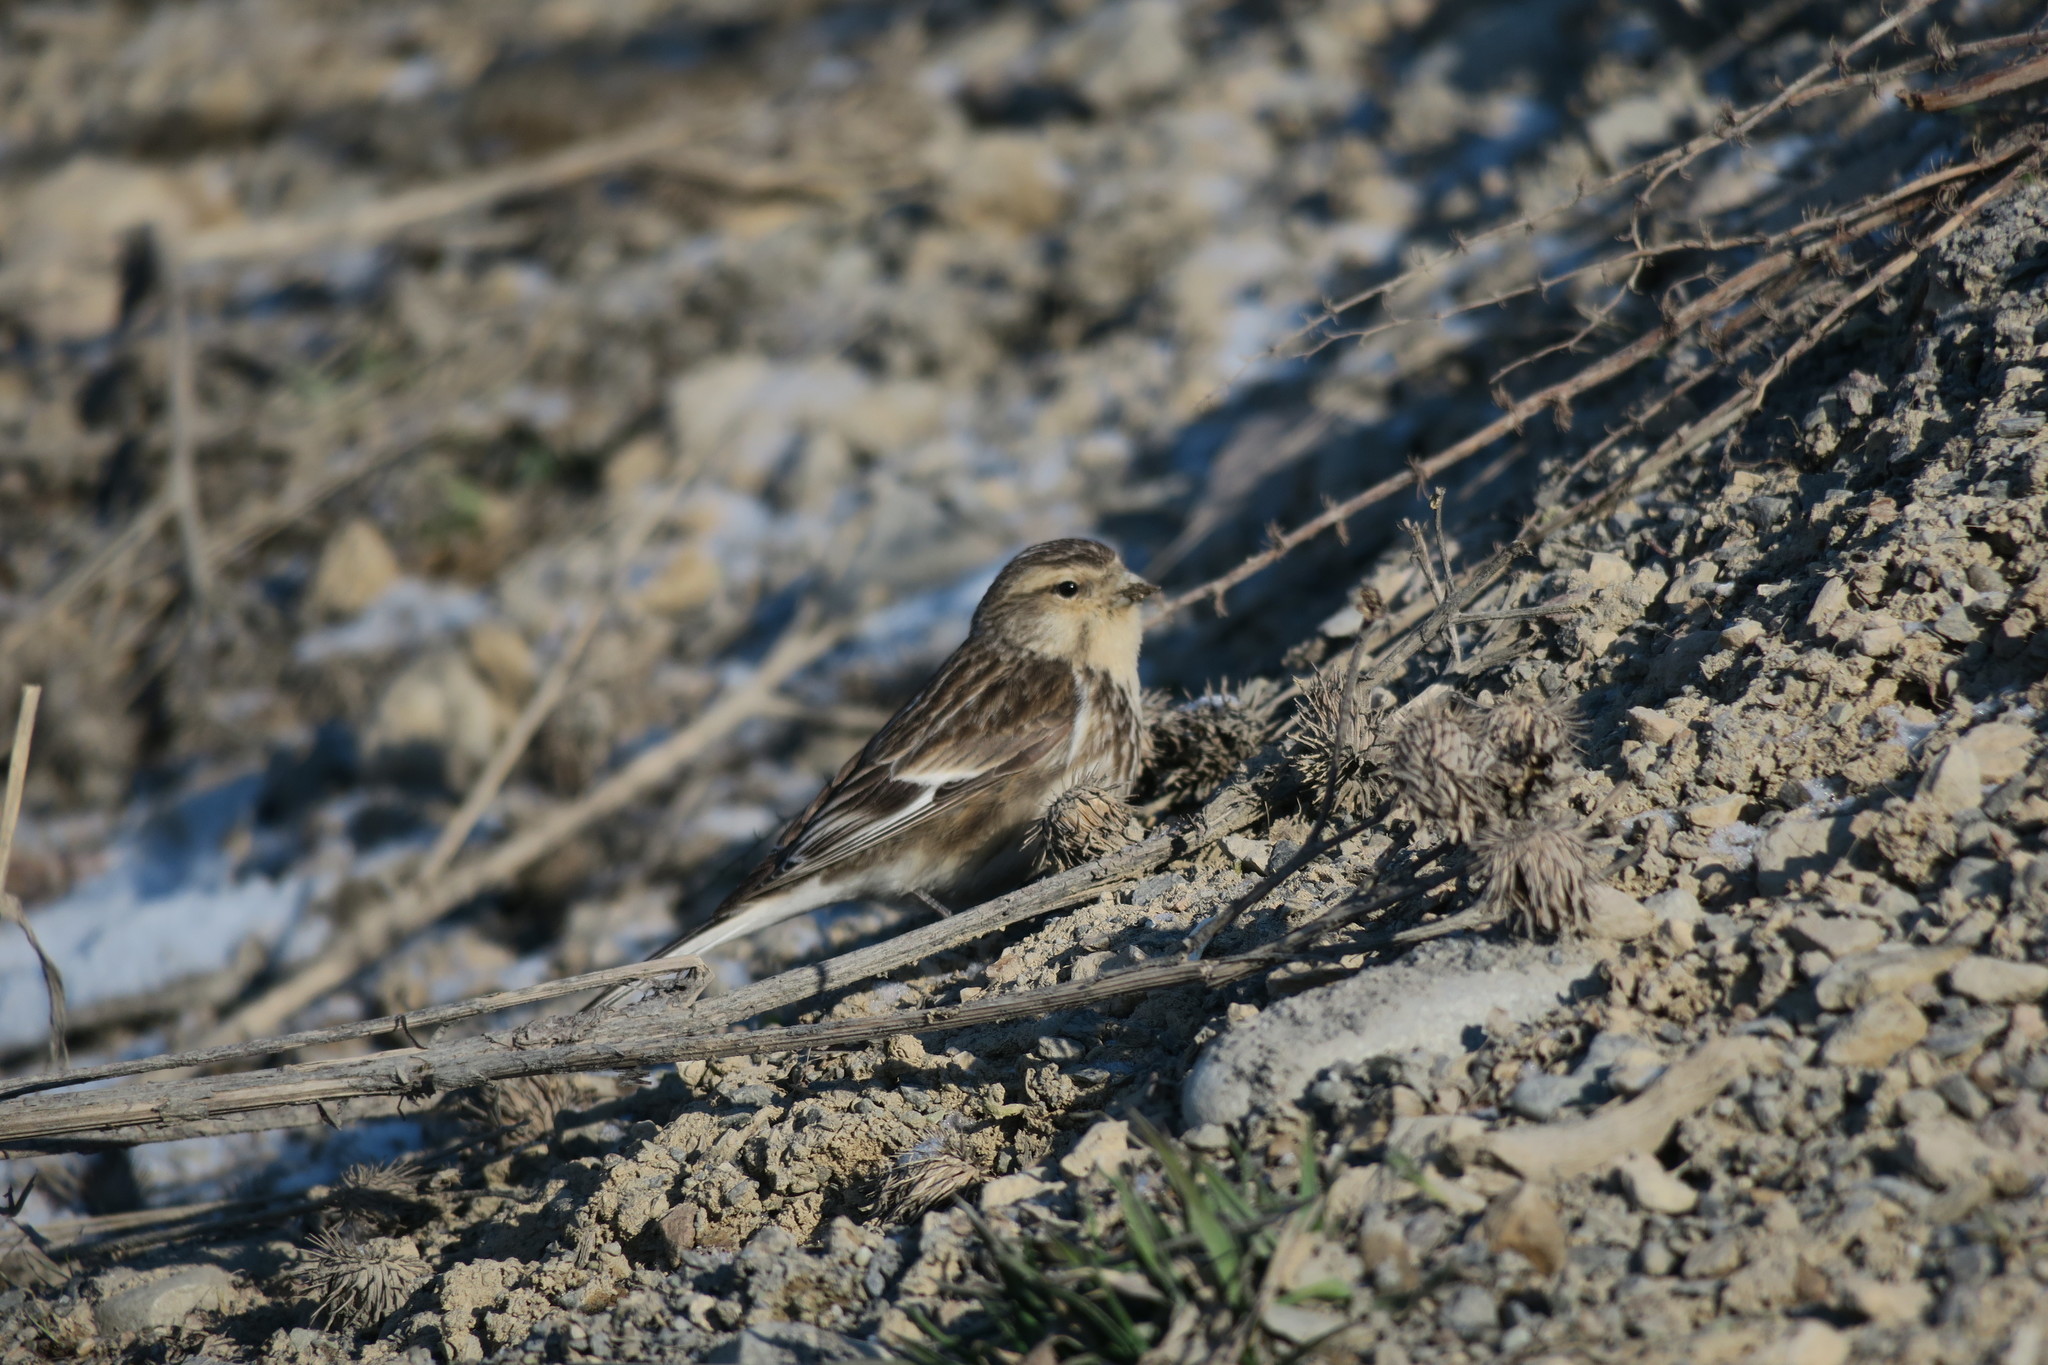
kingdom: Animalia
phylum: Chordata
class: Aves
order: Passeriformes
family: Fringillidae
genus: Linaria
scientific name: Linaria flavirostris
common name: Twite
